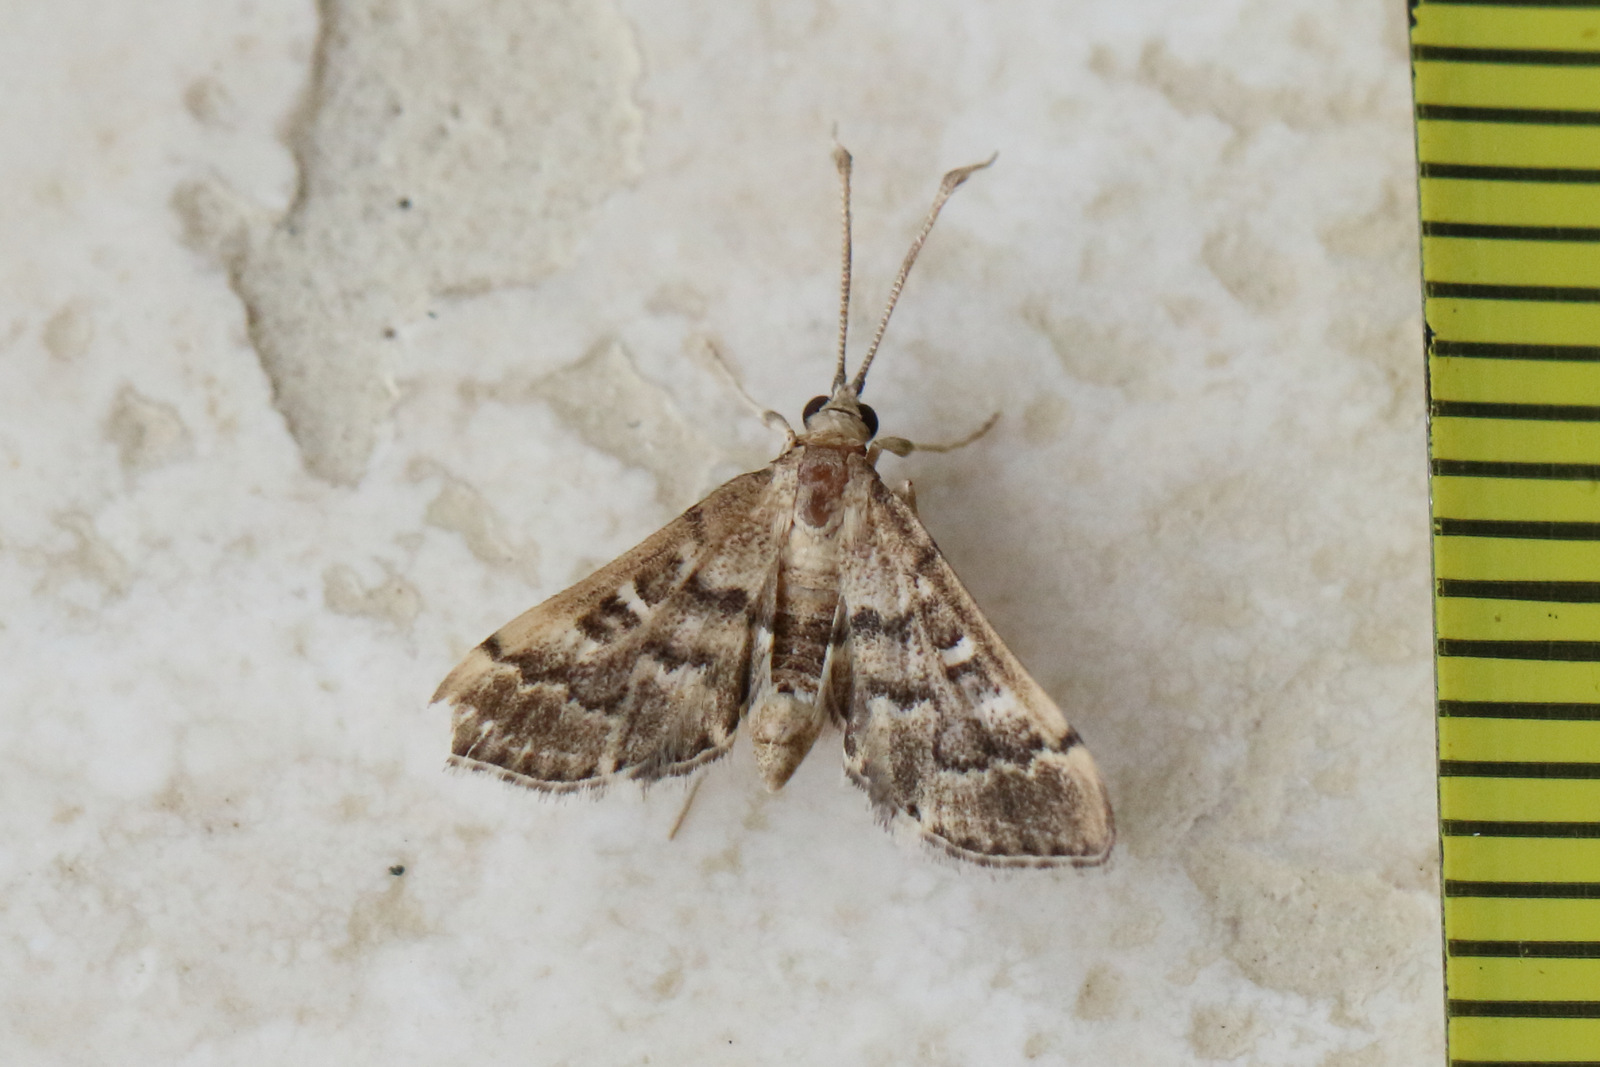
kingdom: Animalia
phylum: Arthropoda
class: Insecta
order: Lepidoptera
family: Crambidae
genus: Nacoleia
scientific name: Nacoleia rhoeoalis
